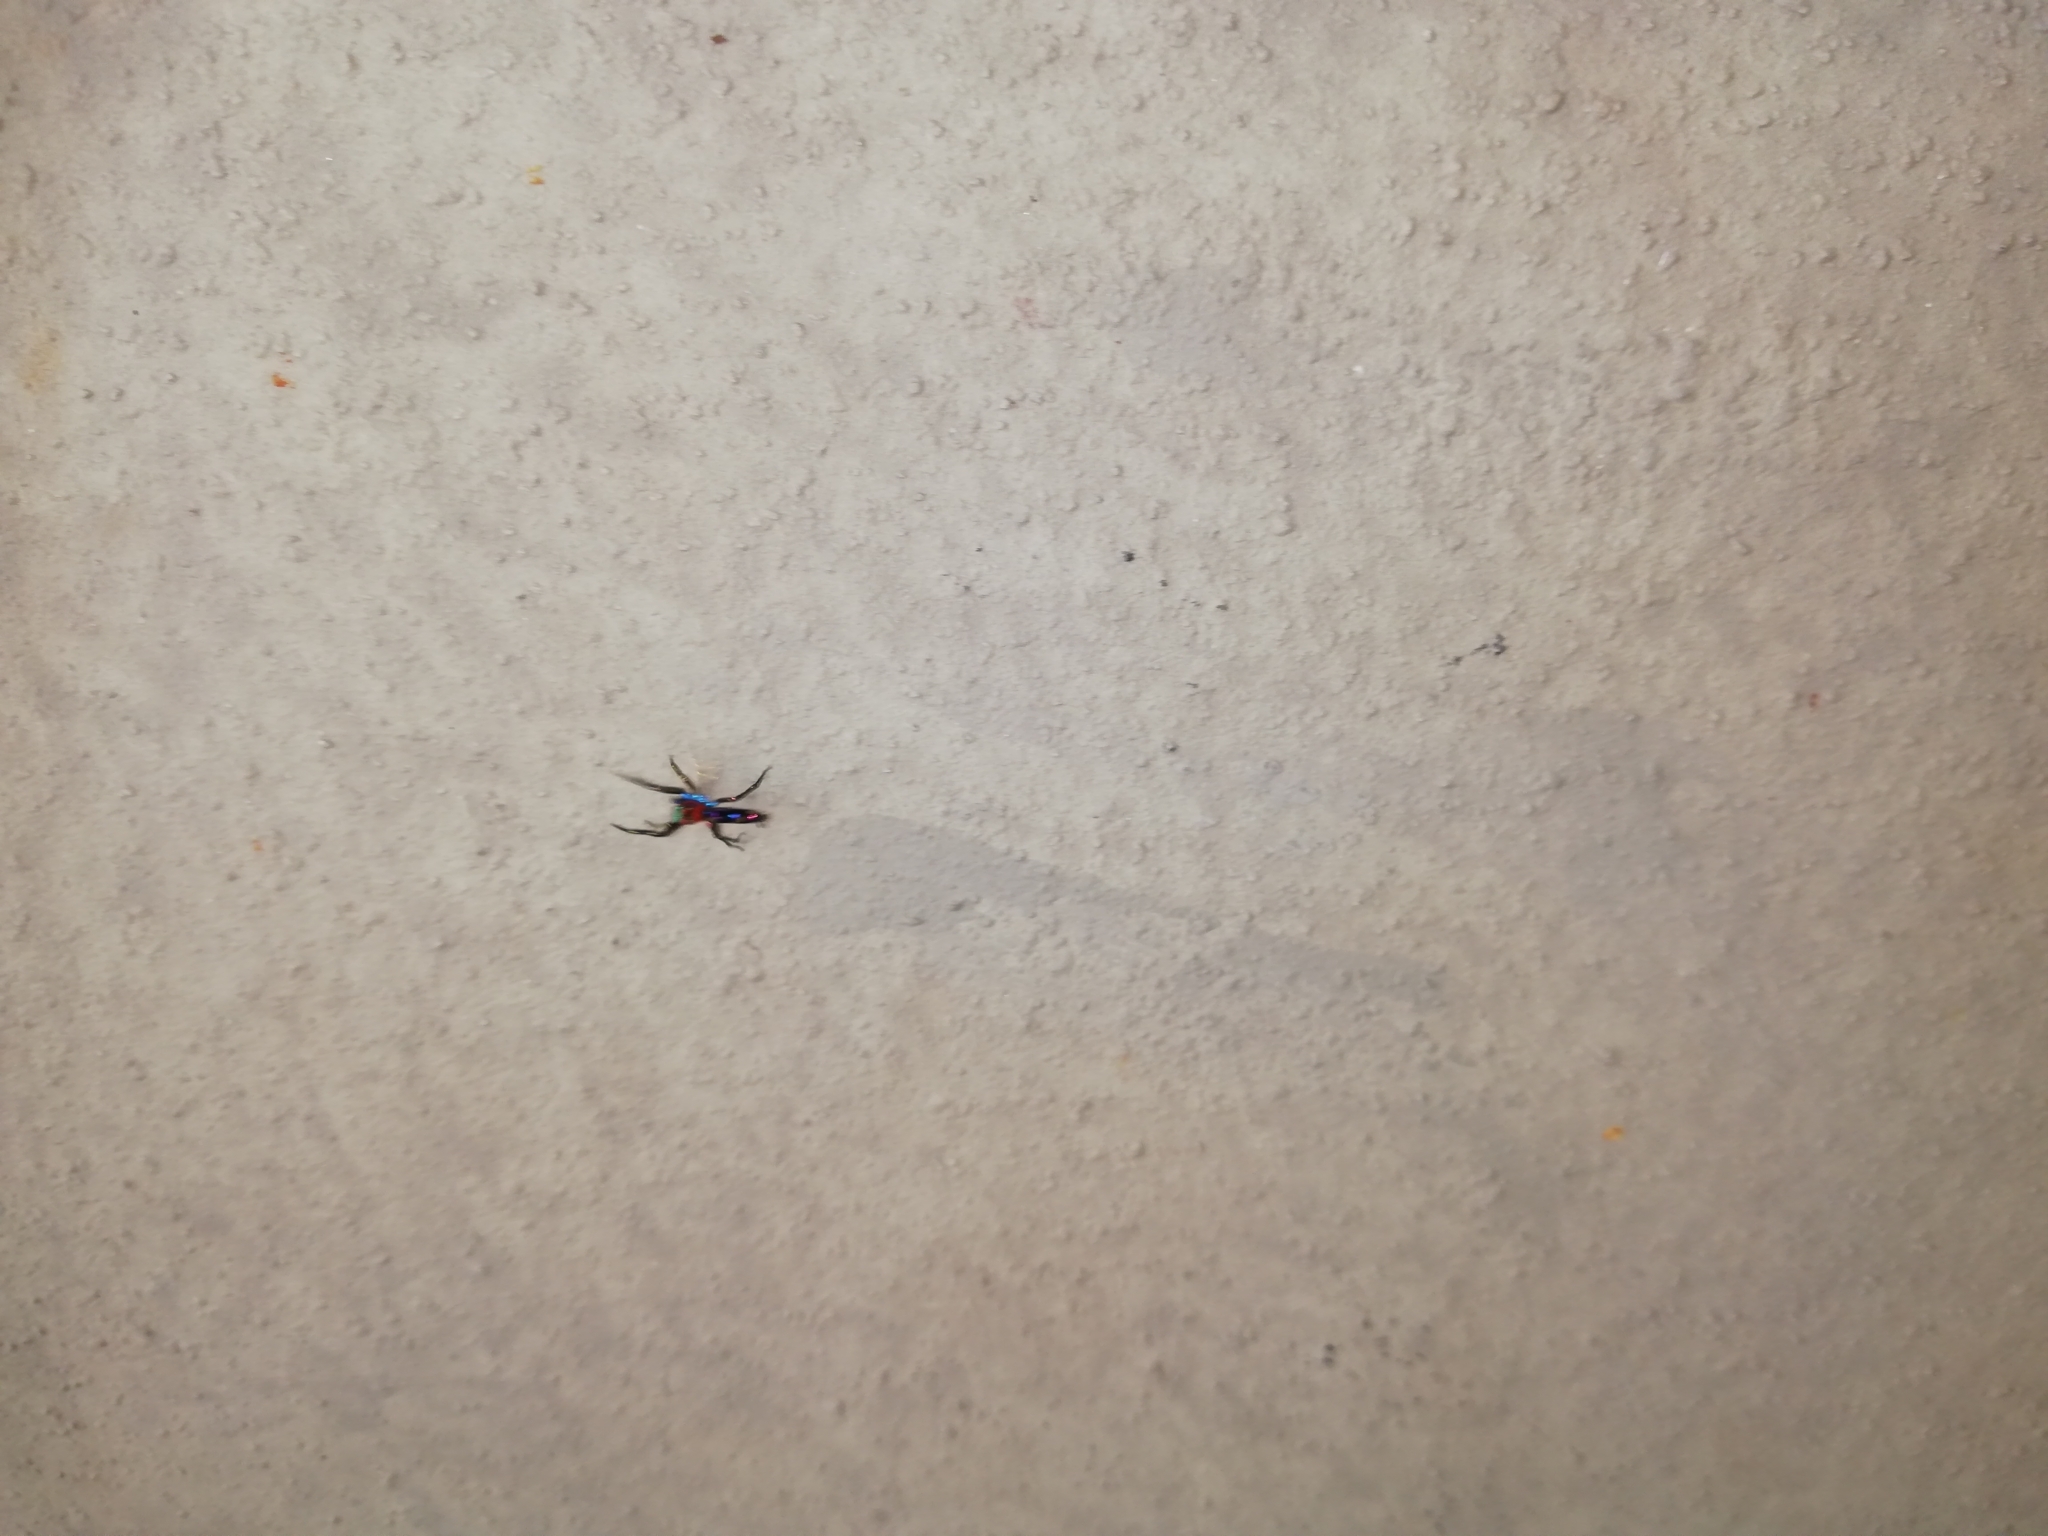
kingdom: Animalia
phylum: Arthropoda
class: Arachnida
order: Araneae
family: Salticidae
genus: Chrysilla
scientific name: Chrysilla volupe
